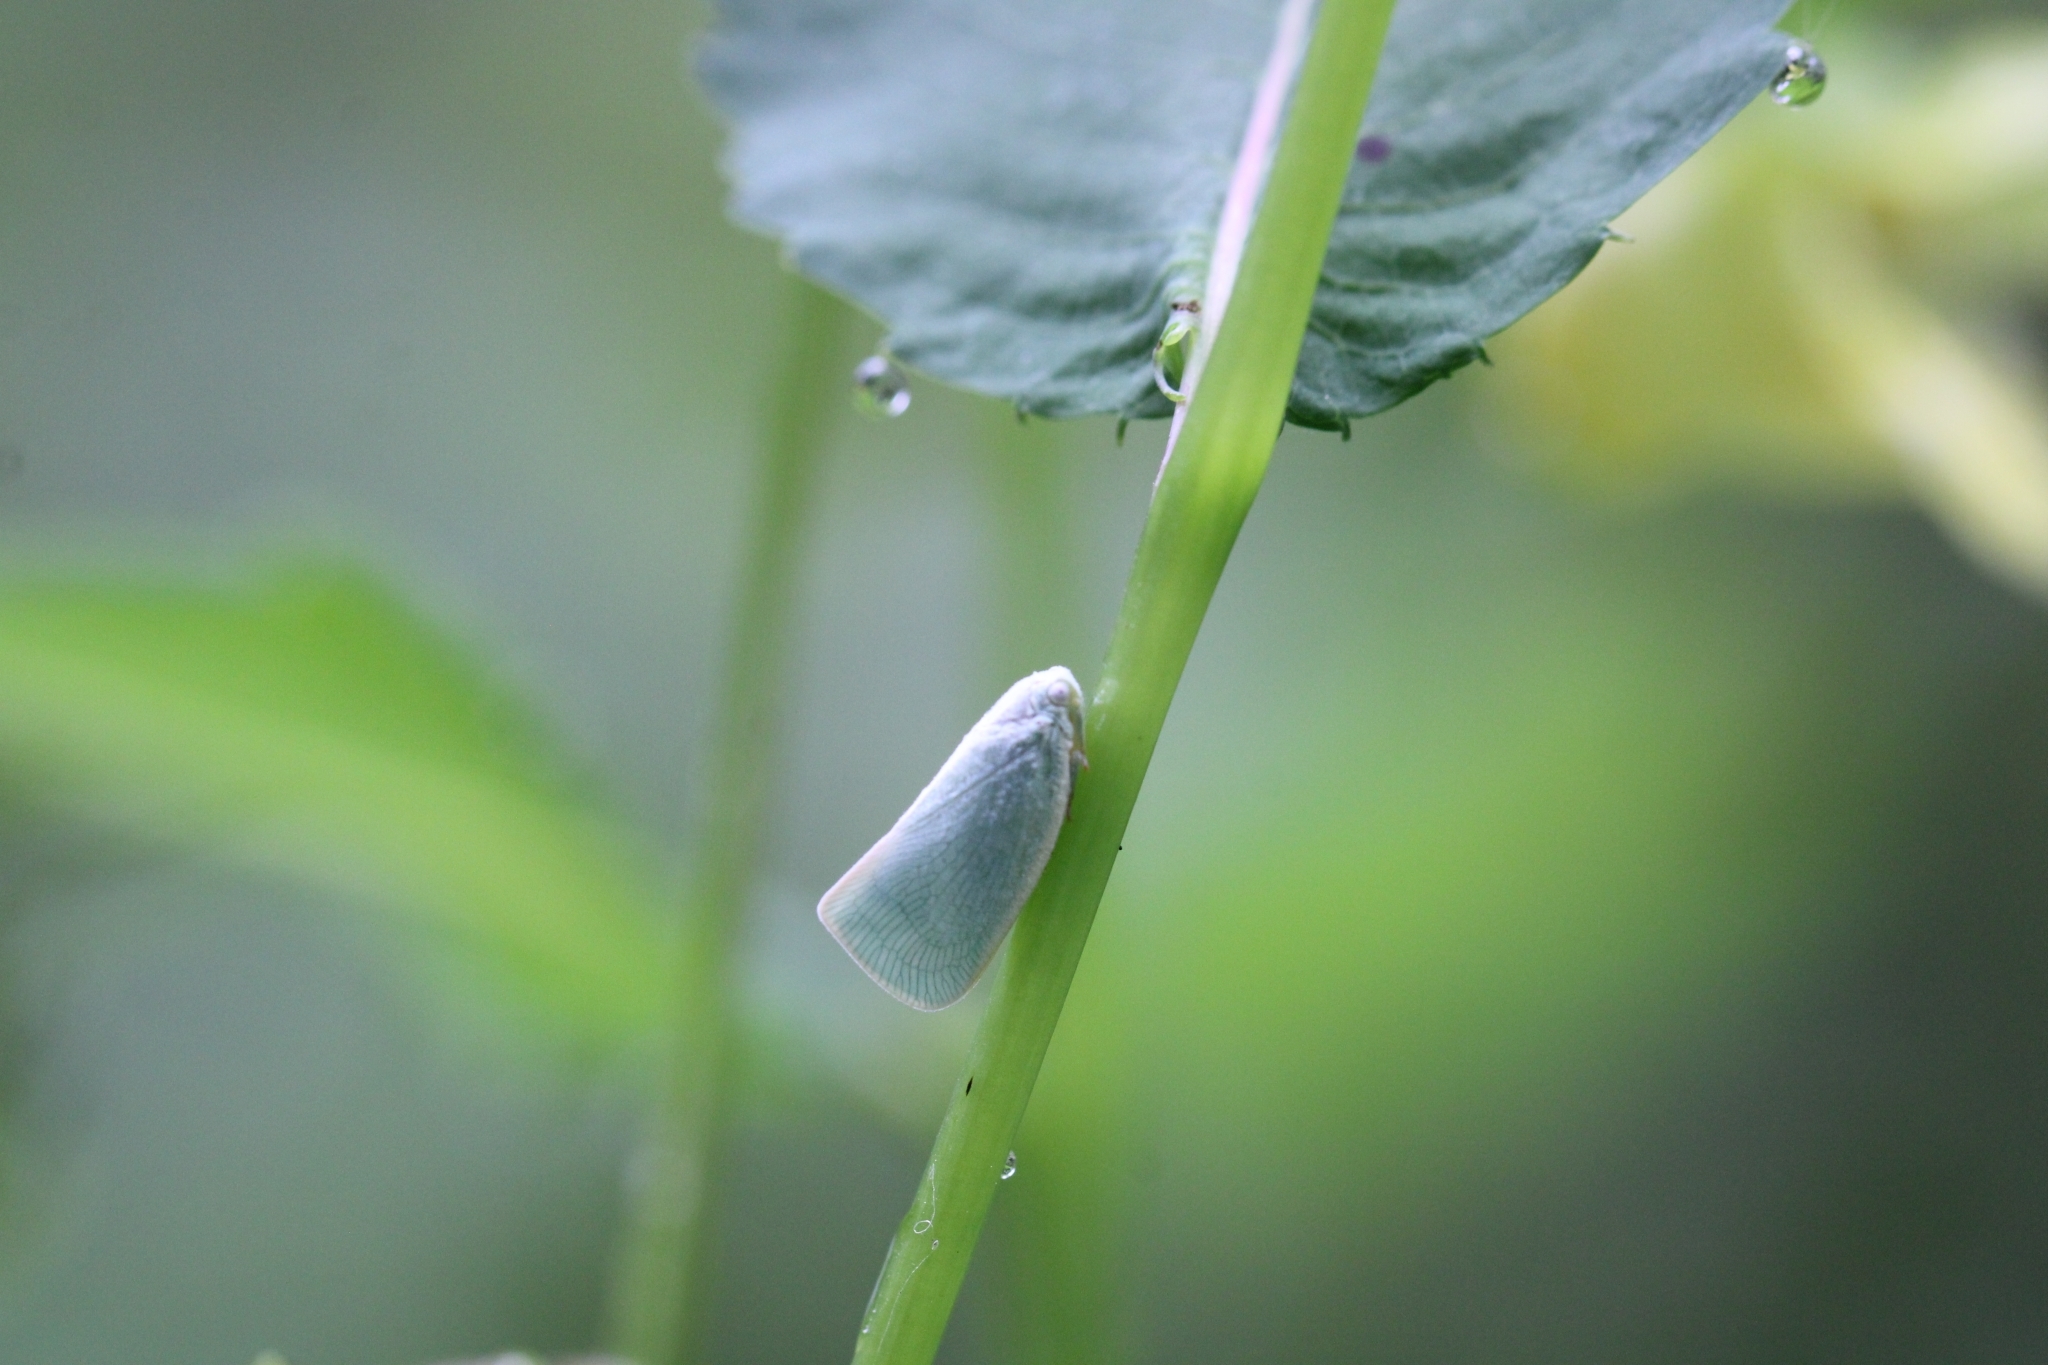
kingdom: Animalia
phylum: Arthropoda
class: Insecta
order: Hemiptera
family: Flatidae
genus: Flatormenis
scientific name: Flatormenis proxima
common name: Northern flatid planthopper
